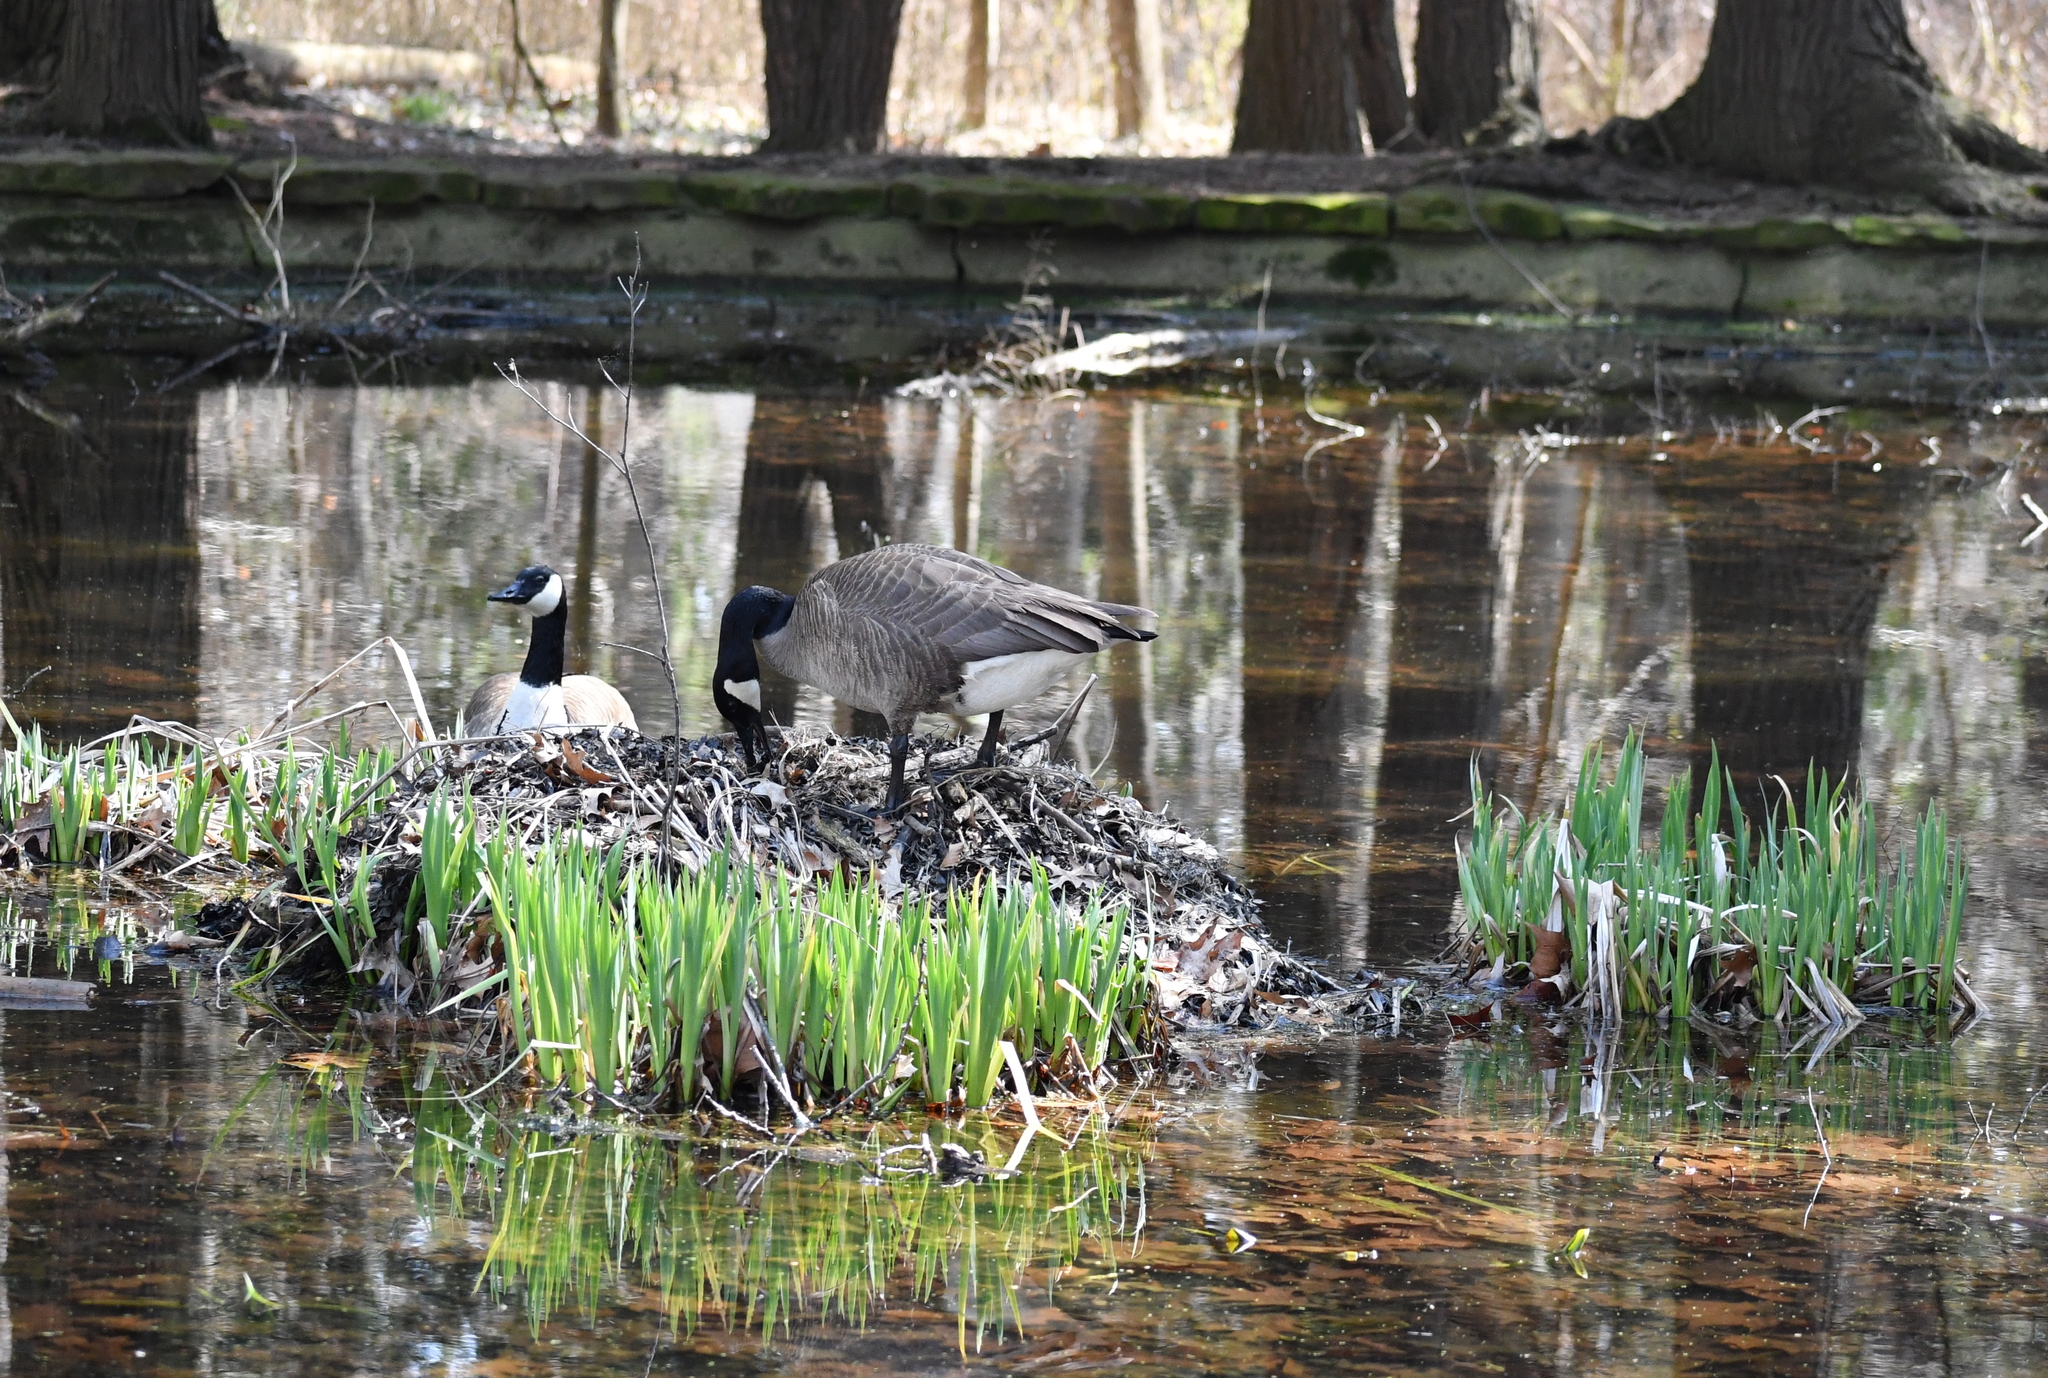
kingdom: Animalia
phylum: Chordata
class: Aves
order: Anseriformes
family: Anatidae
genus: Branta
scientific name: Branta canadensis
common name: Canada goose
